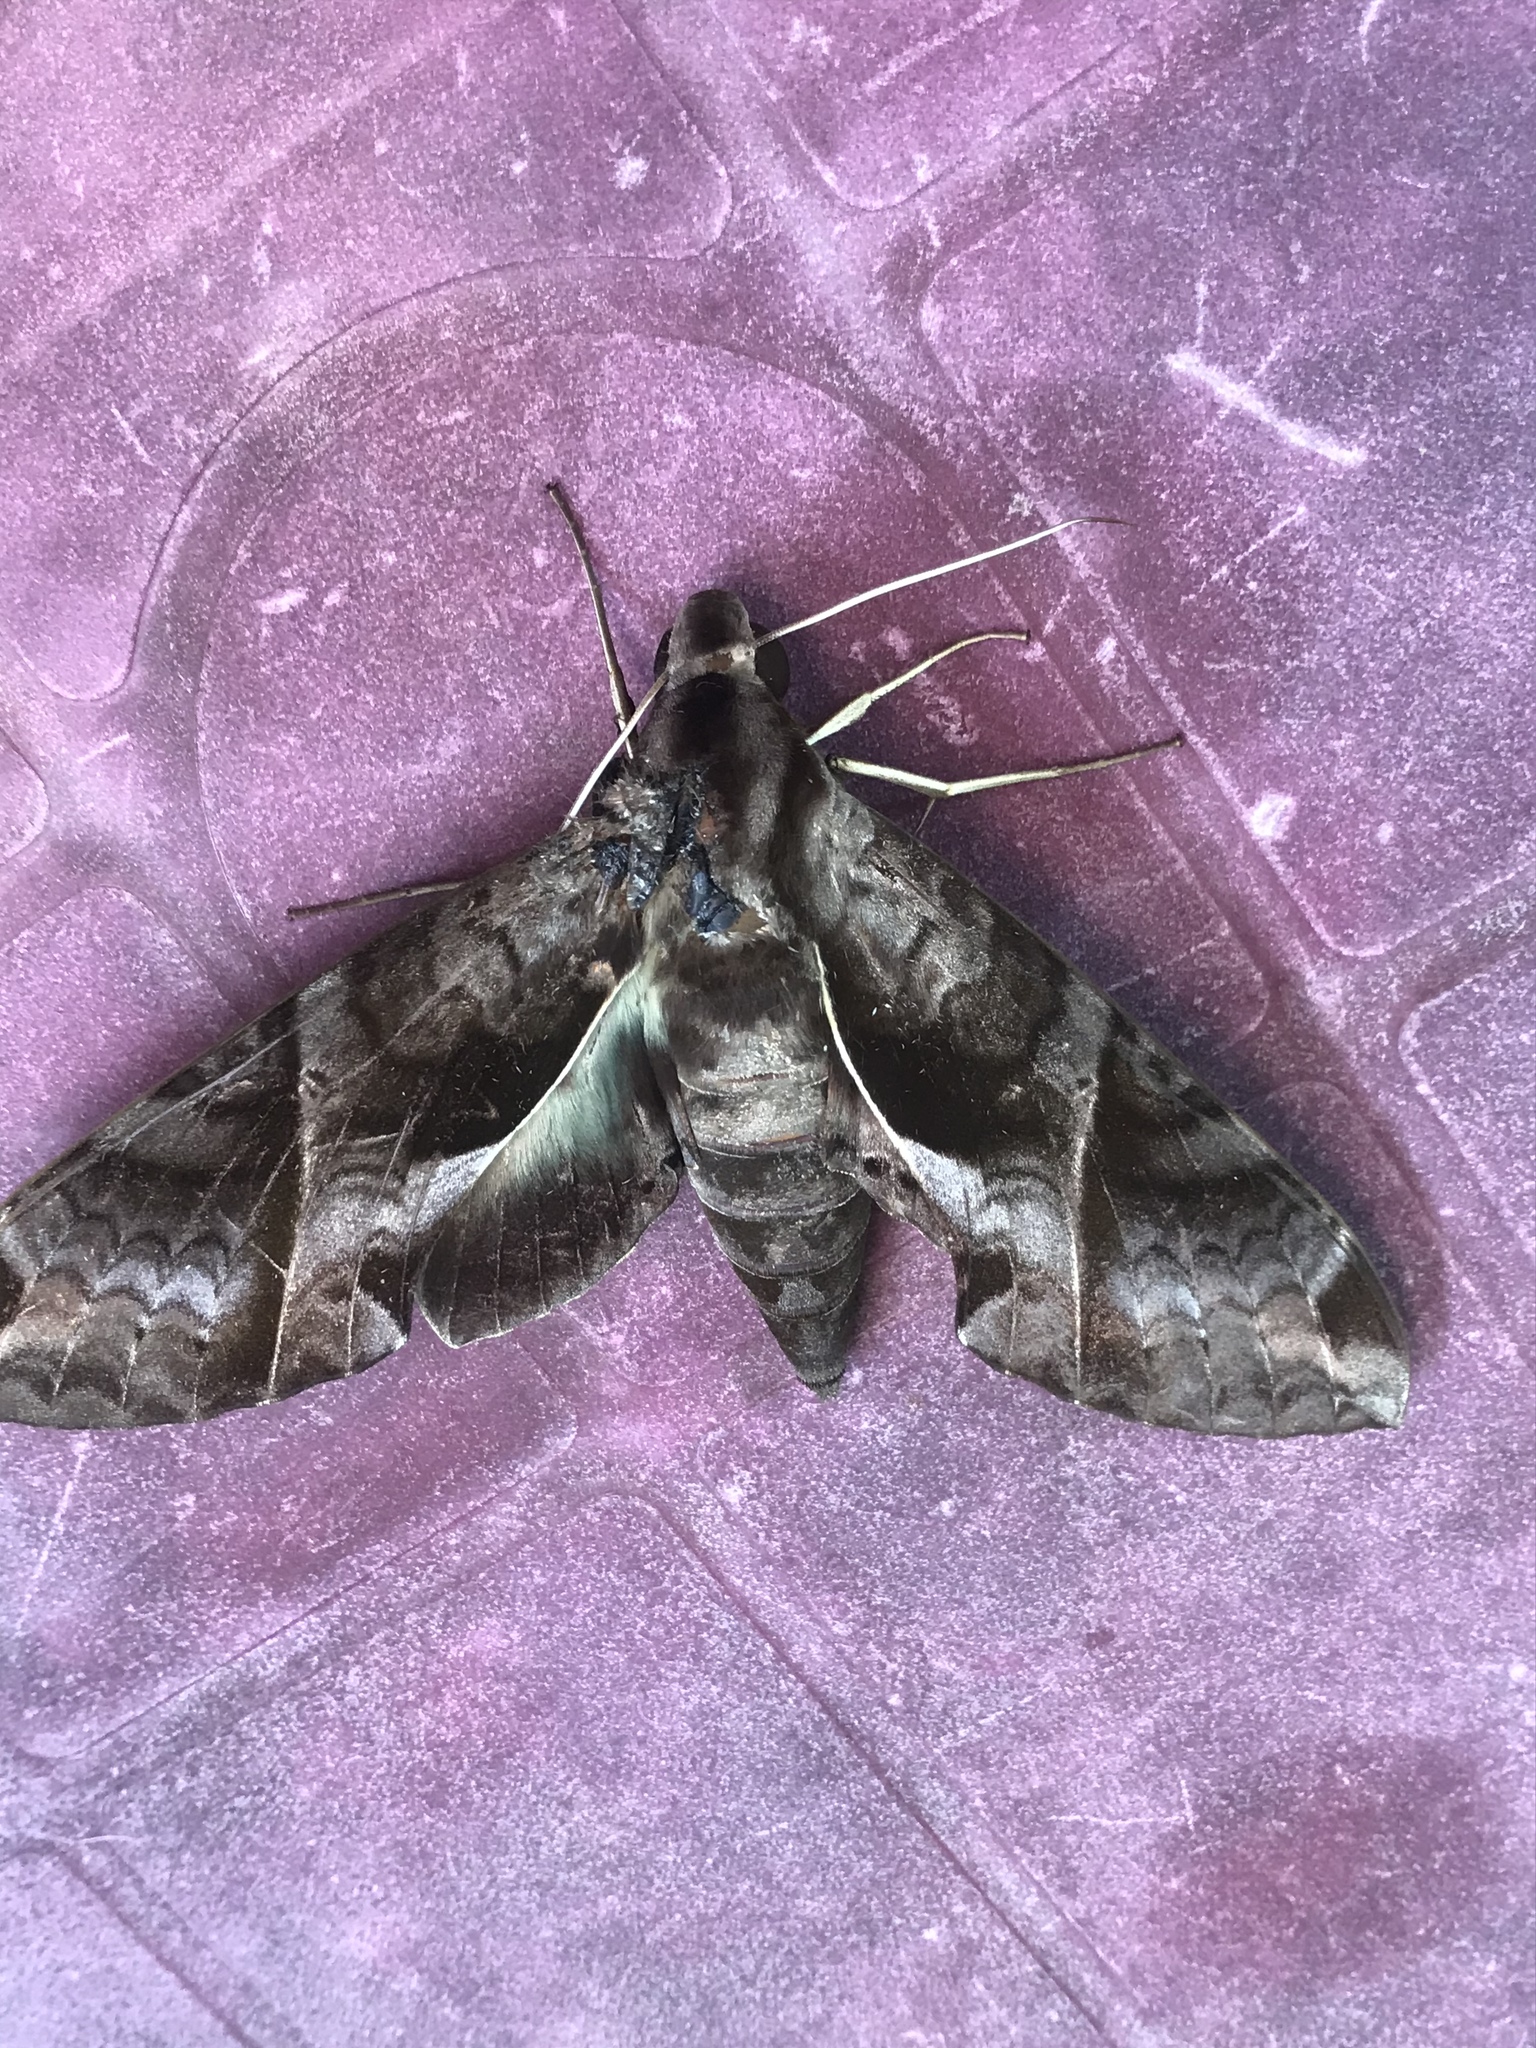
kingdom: Animalia
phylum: Arthropoda
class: Insecta
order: Lepidoptera
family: Sphingidae
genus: Eumorpha
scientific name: Eumorpha anchemolus
